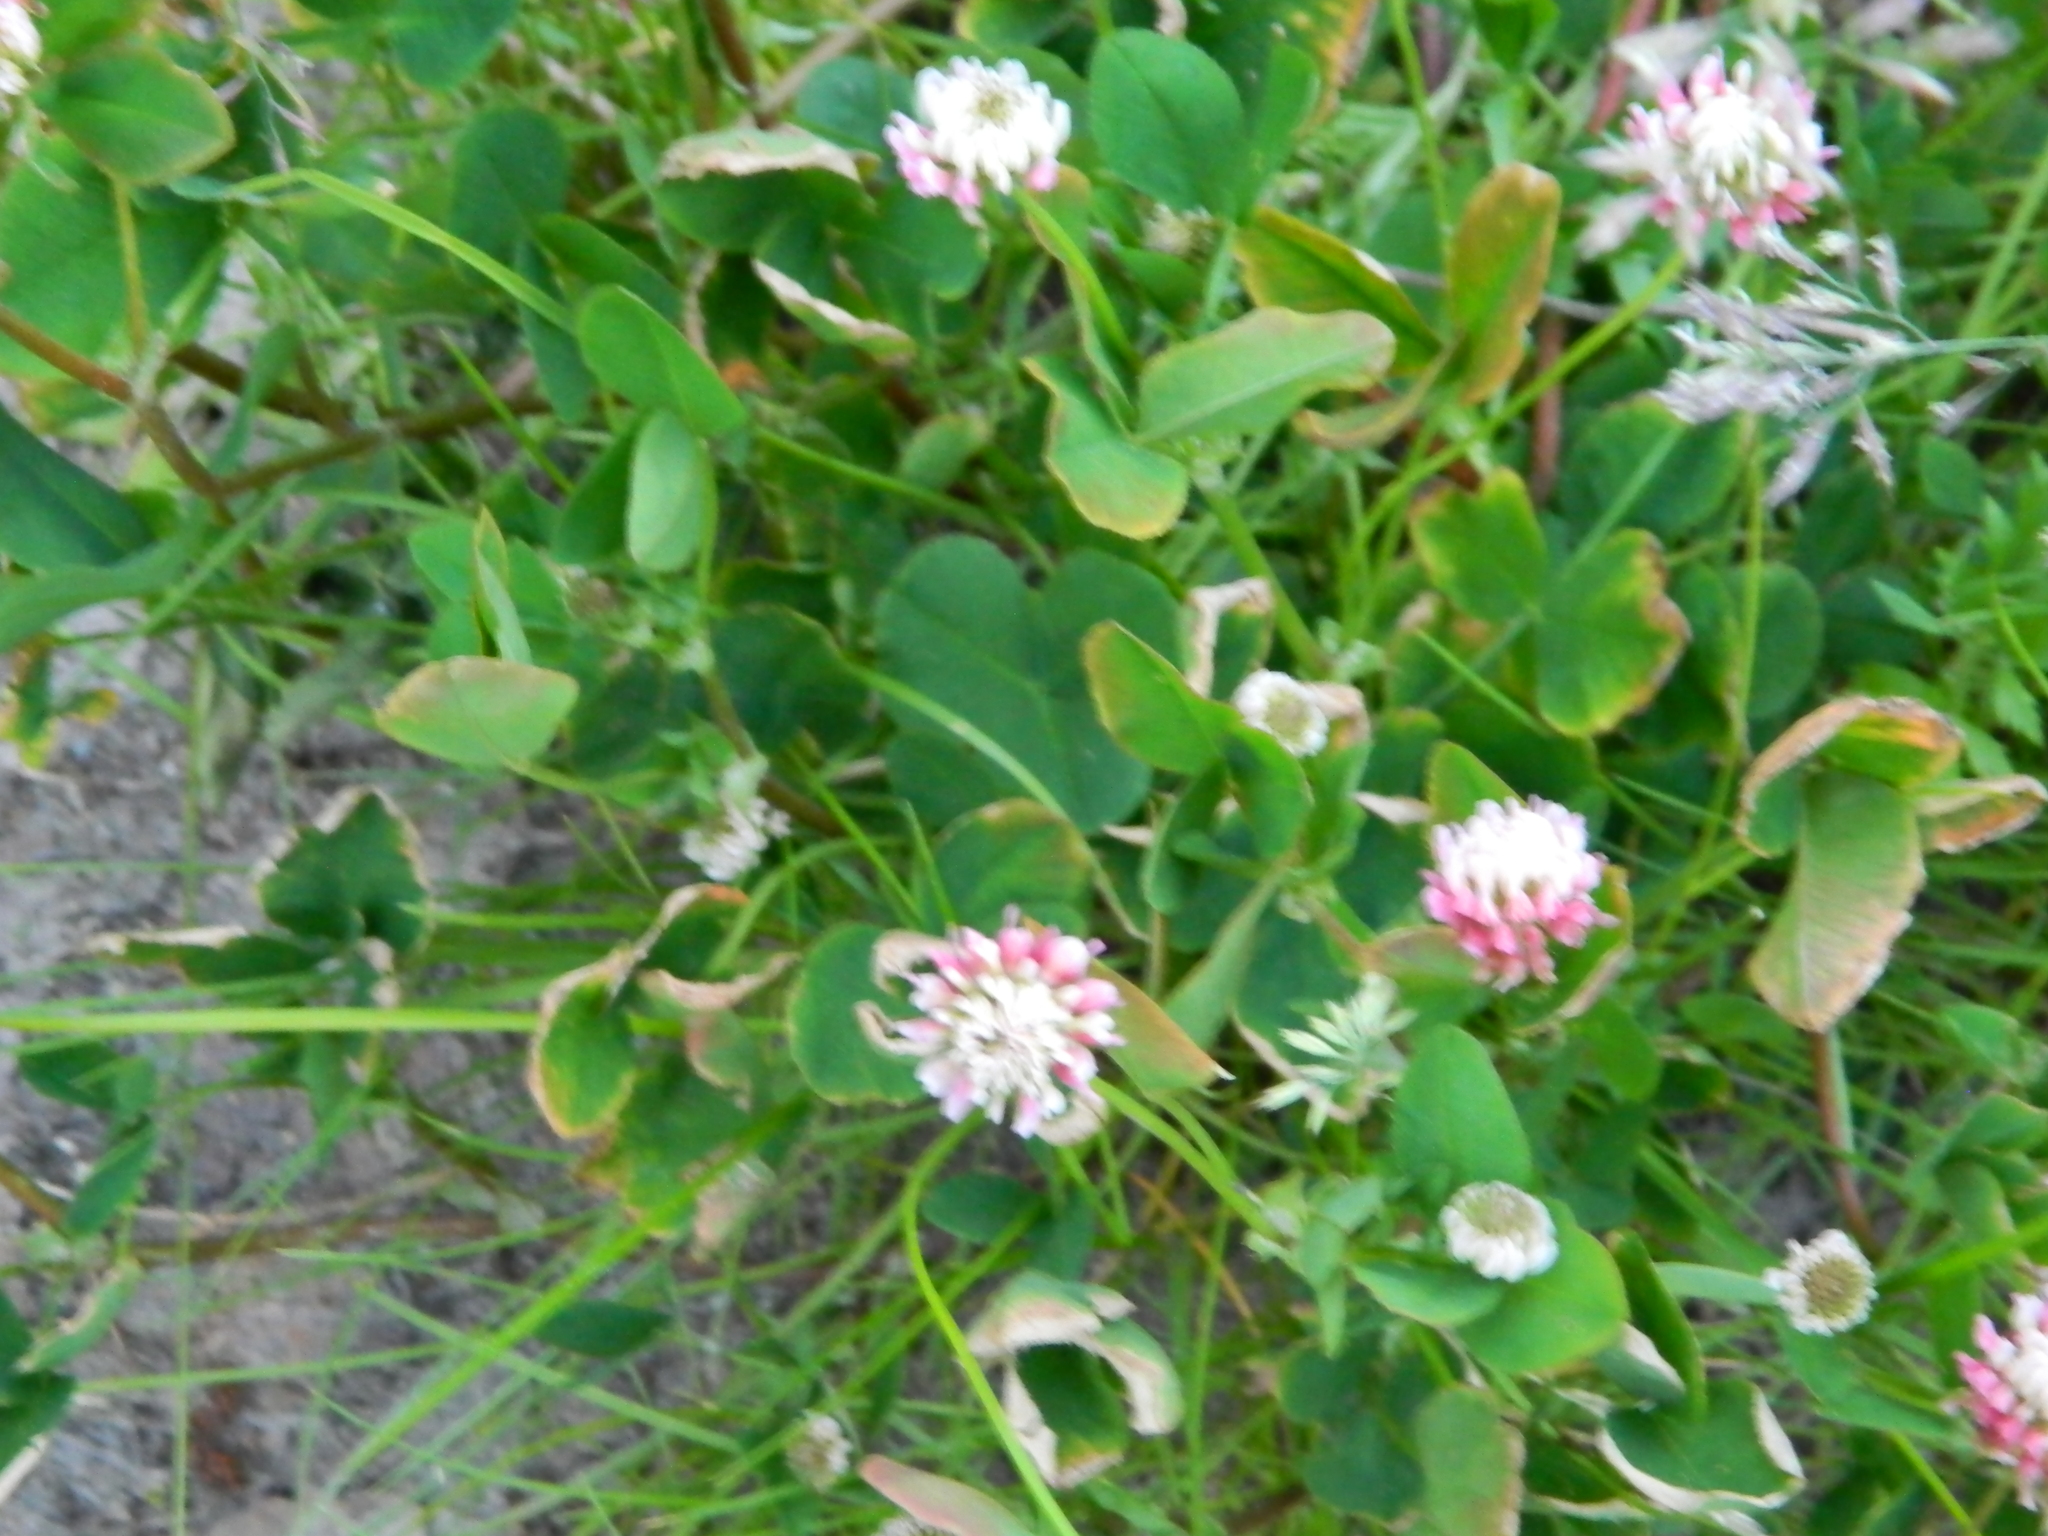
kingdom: Plantae
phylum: Tracheophyta
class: Magnoliopsida
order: Fabales
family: Fabaceae
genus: Trifolium
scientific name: Trifolium hybridum
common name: Alsike clover
